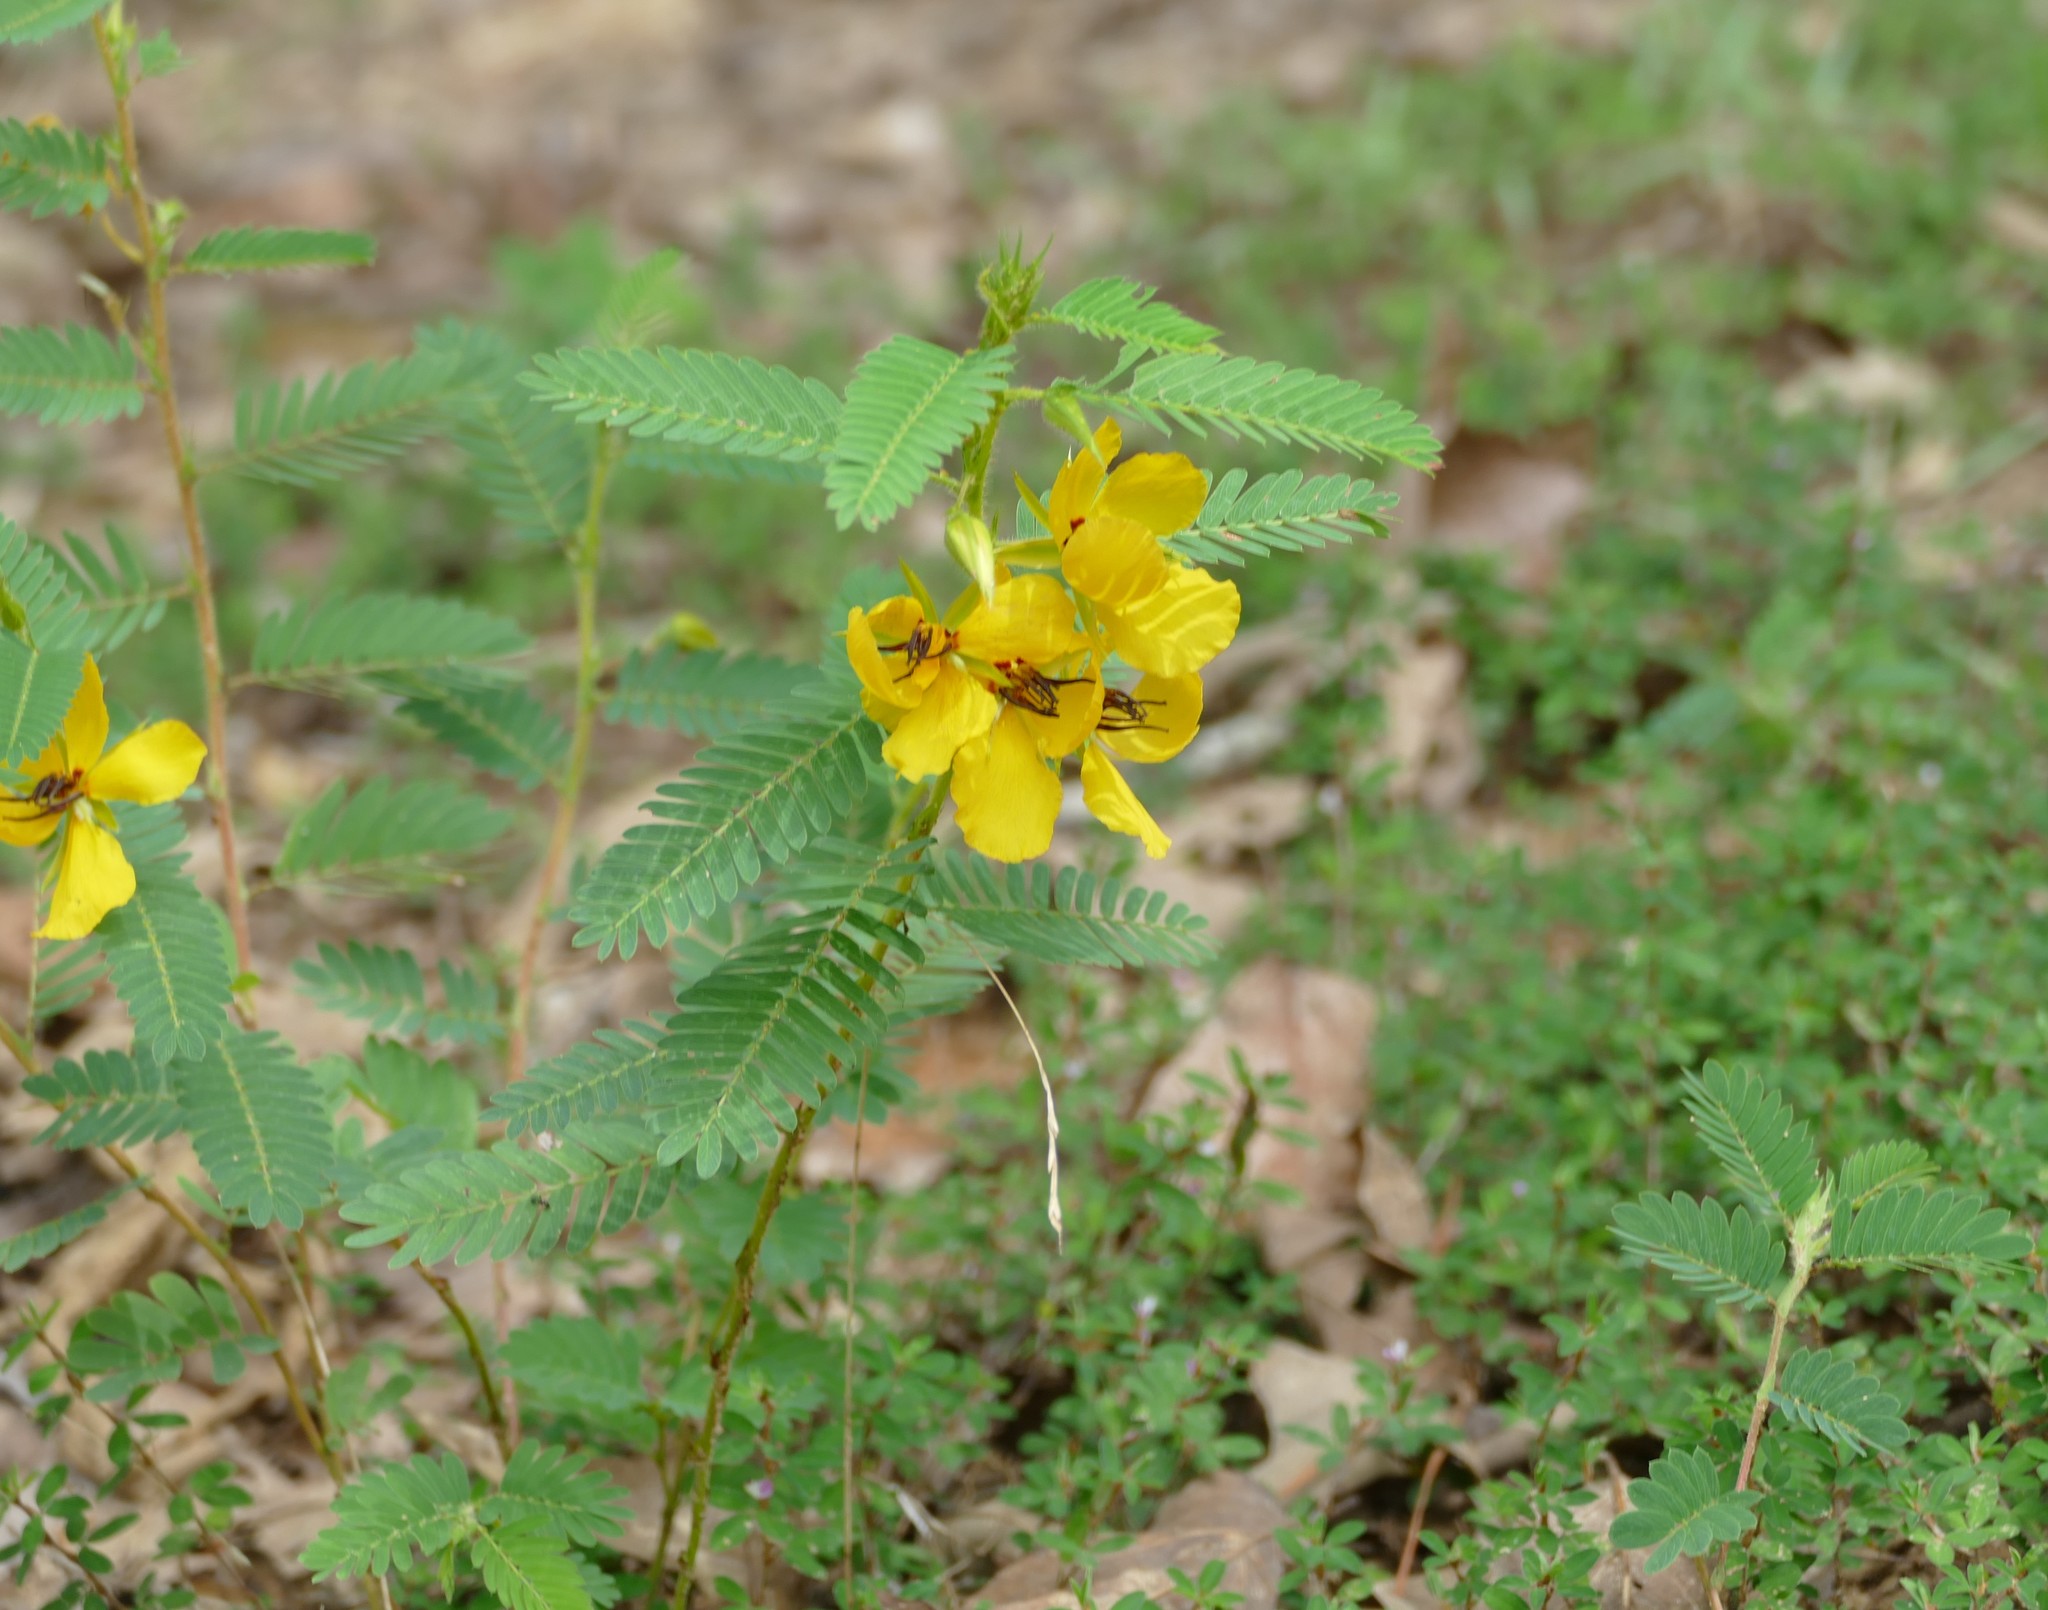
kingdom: Plantae
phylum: Tracheophyta
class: Magnoliopsida
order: Fabales
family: Fabaceae
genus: Chamaecrista
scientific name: Chamaecrista fasciculata
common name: Golden cassia
